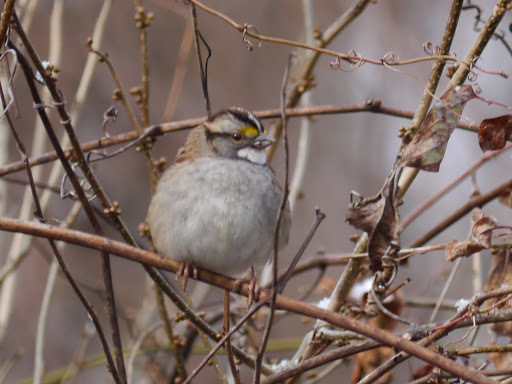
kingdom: Animalia
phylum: Chordata
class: Aves
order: Passeriformes
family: Passerellidae
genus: Zonotrichia
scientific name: Zonotrichia albicollis
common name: White-throated sparrow
